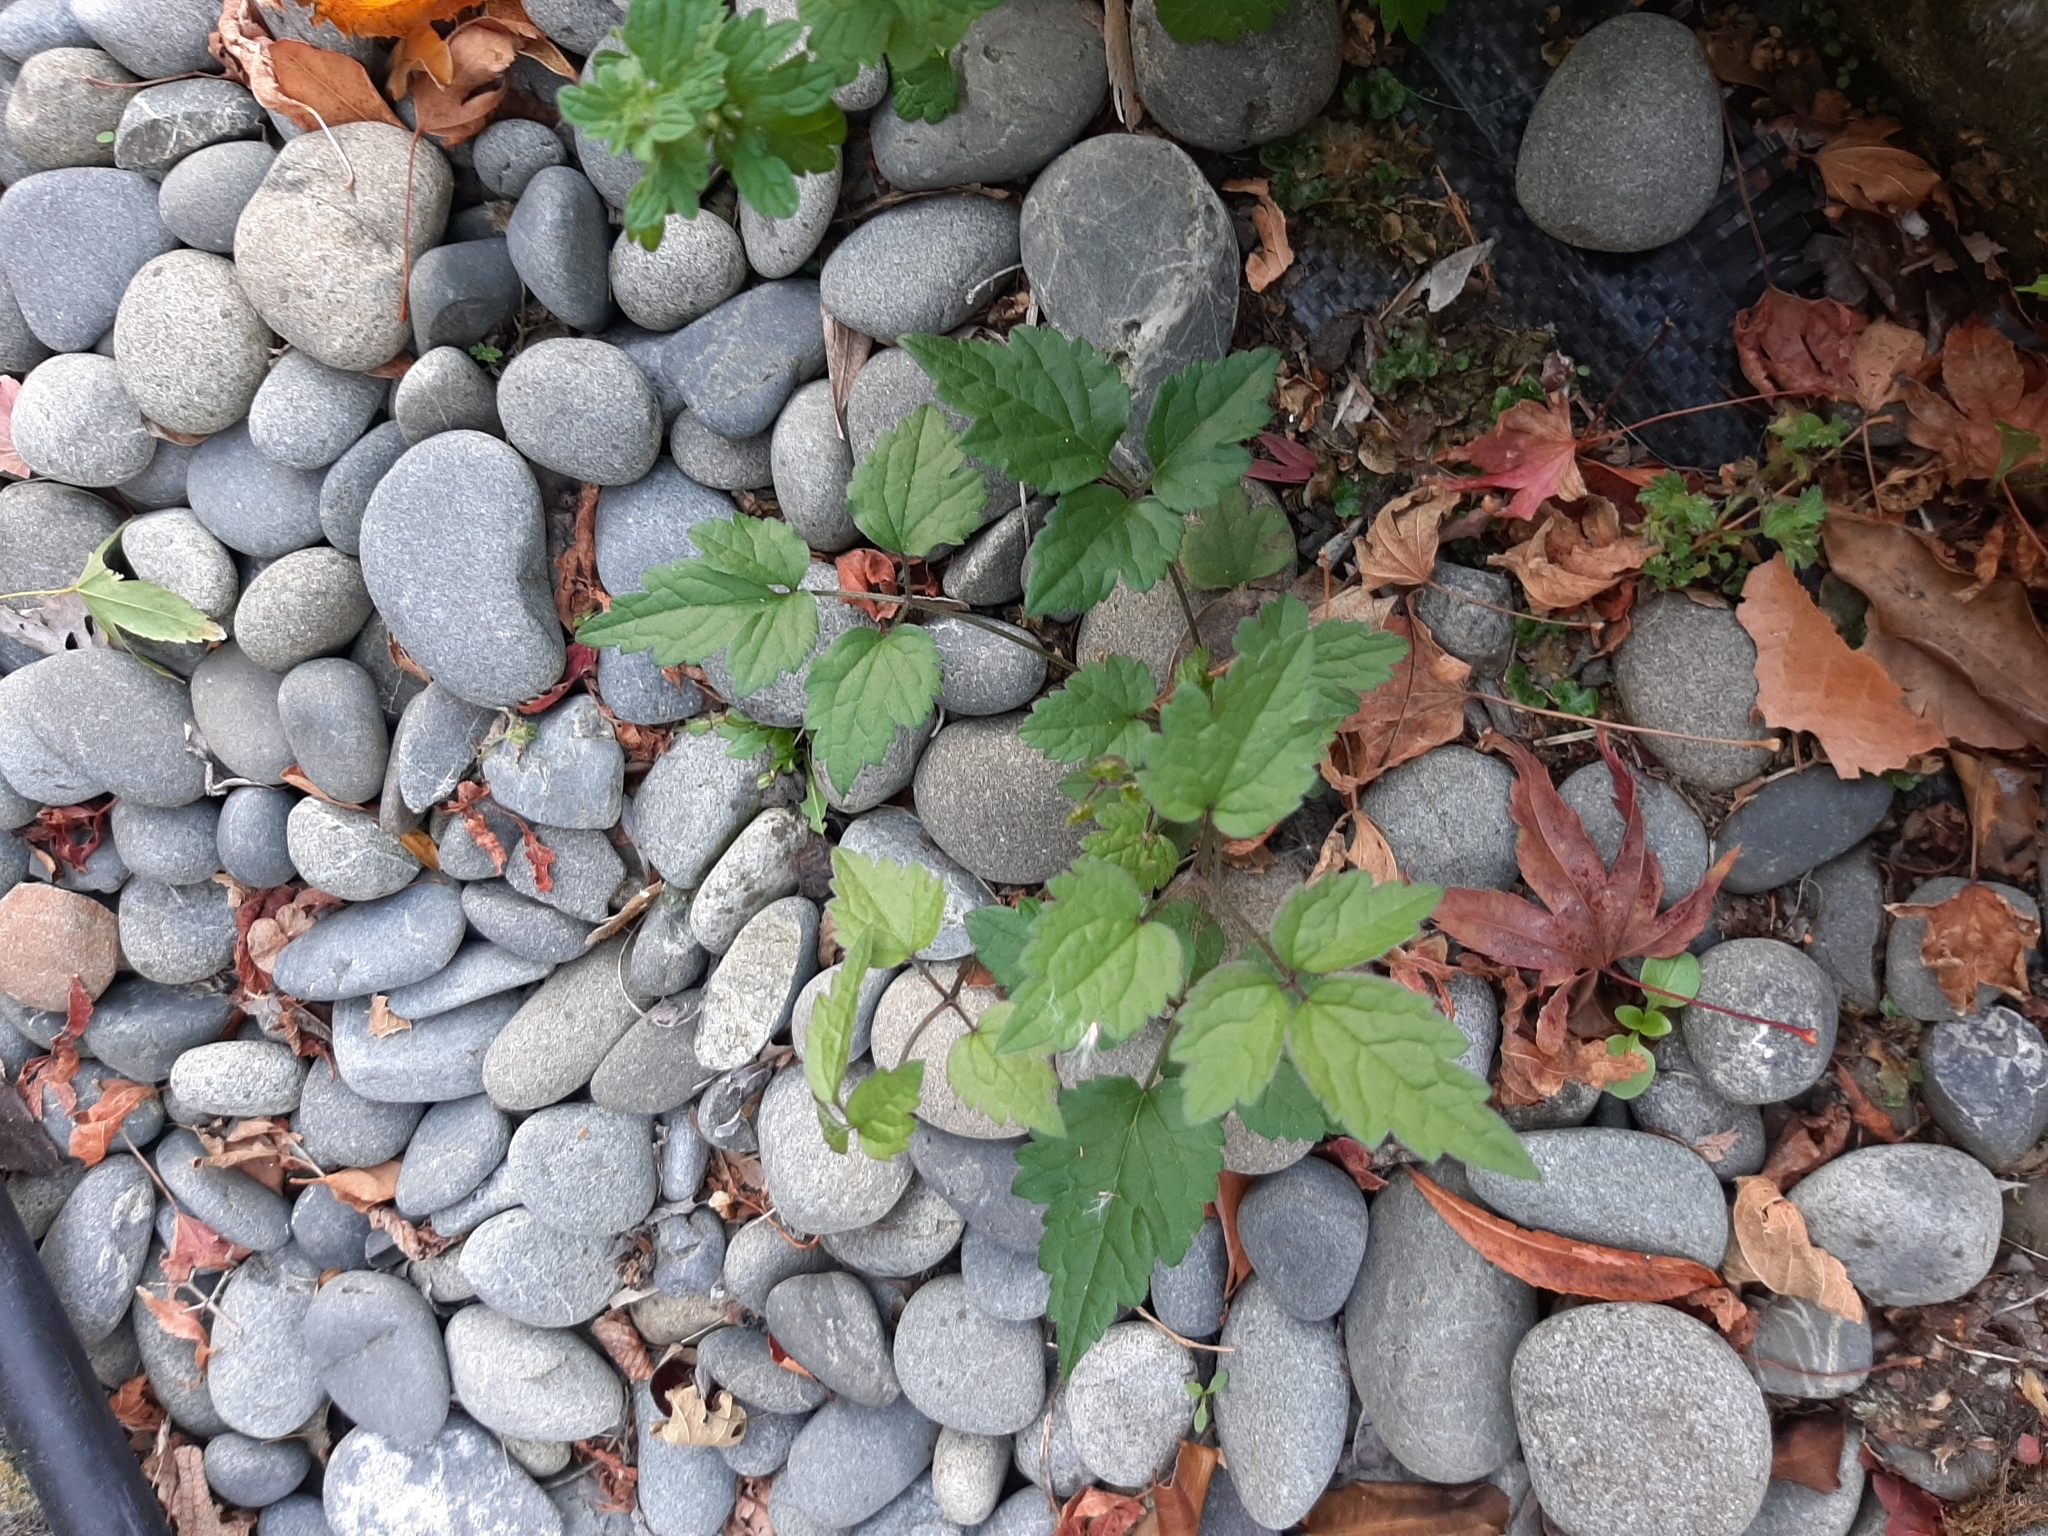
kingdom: Plantae
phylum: Tracheophyta
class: Magnoliopsida
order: Ranunculales
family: Ranunculaceae
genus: Clematis
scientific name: Clematis vitalba
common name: Evergreen clematis
